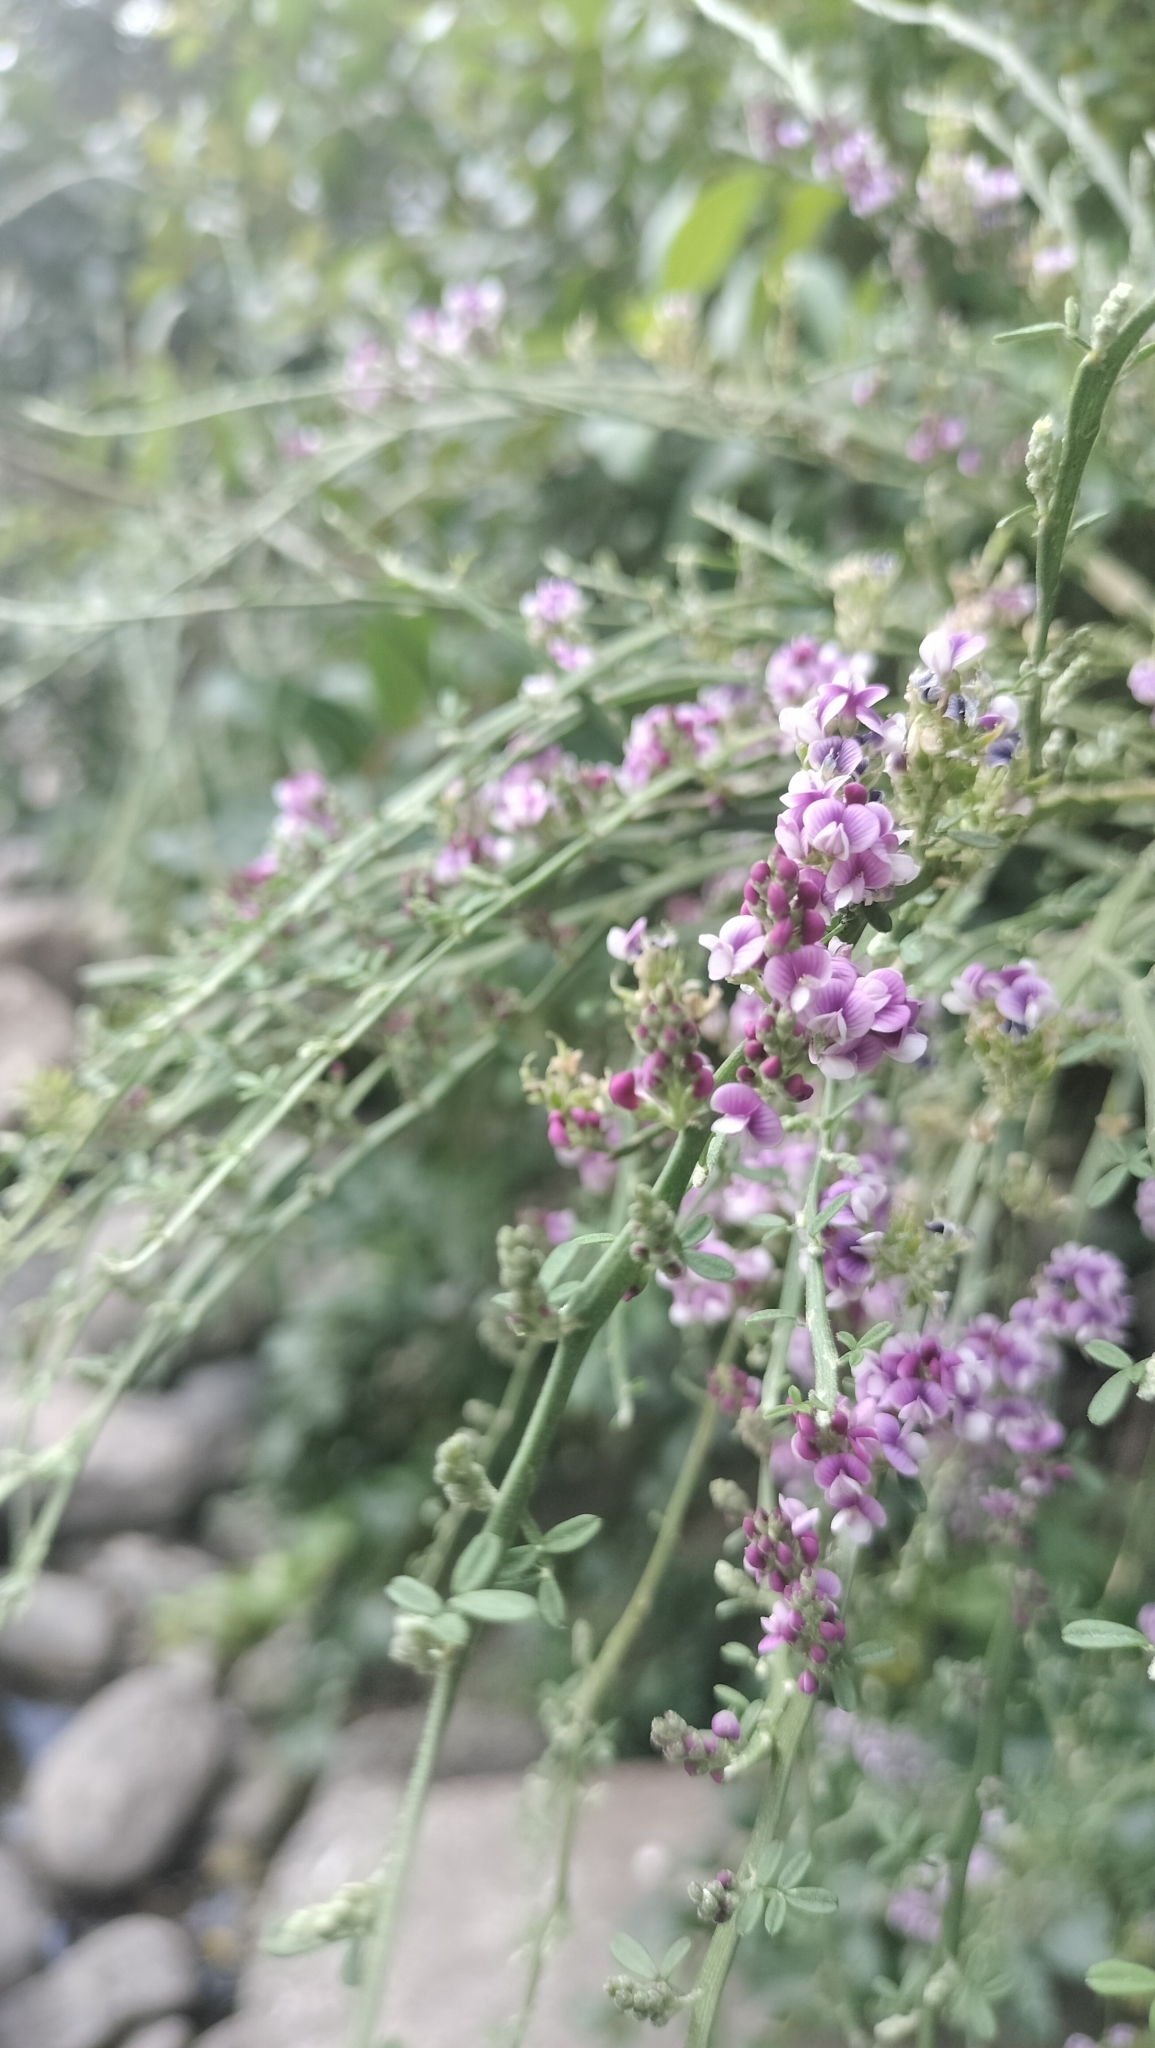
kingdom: Plantae
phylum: Tracheophyta
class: Magnoliopsida
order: Fabales
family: Fabaceae
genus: Carmichaelia
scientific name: Carmichaelia odorata
